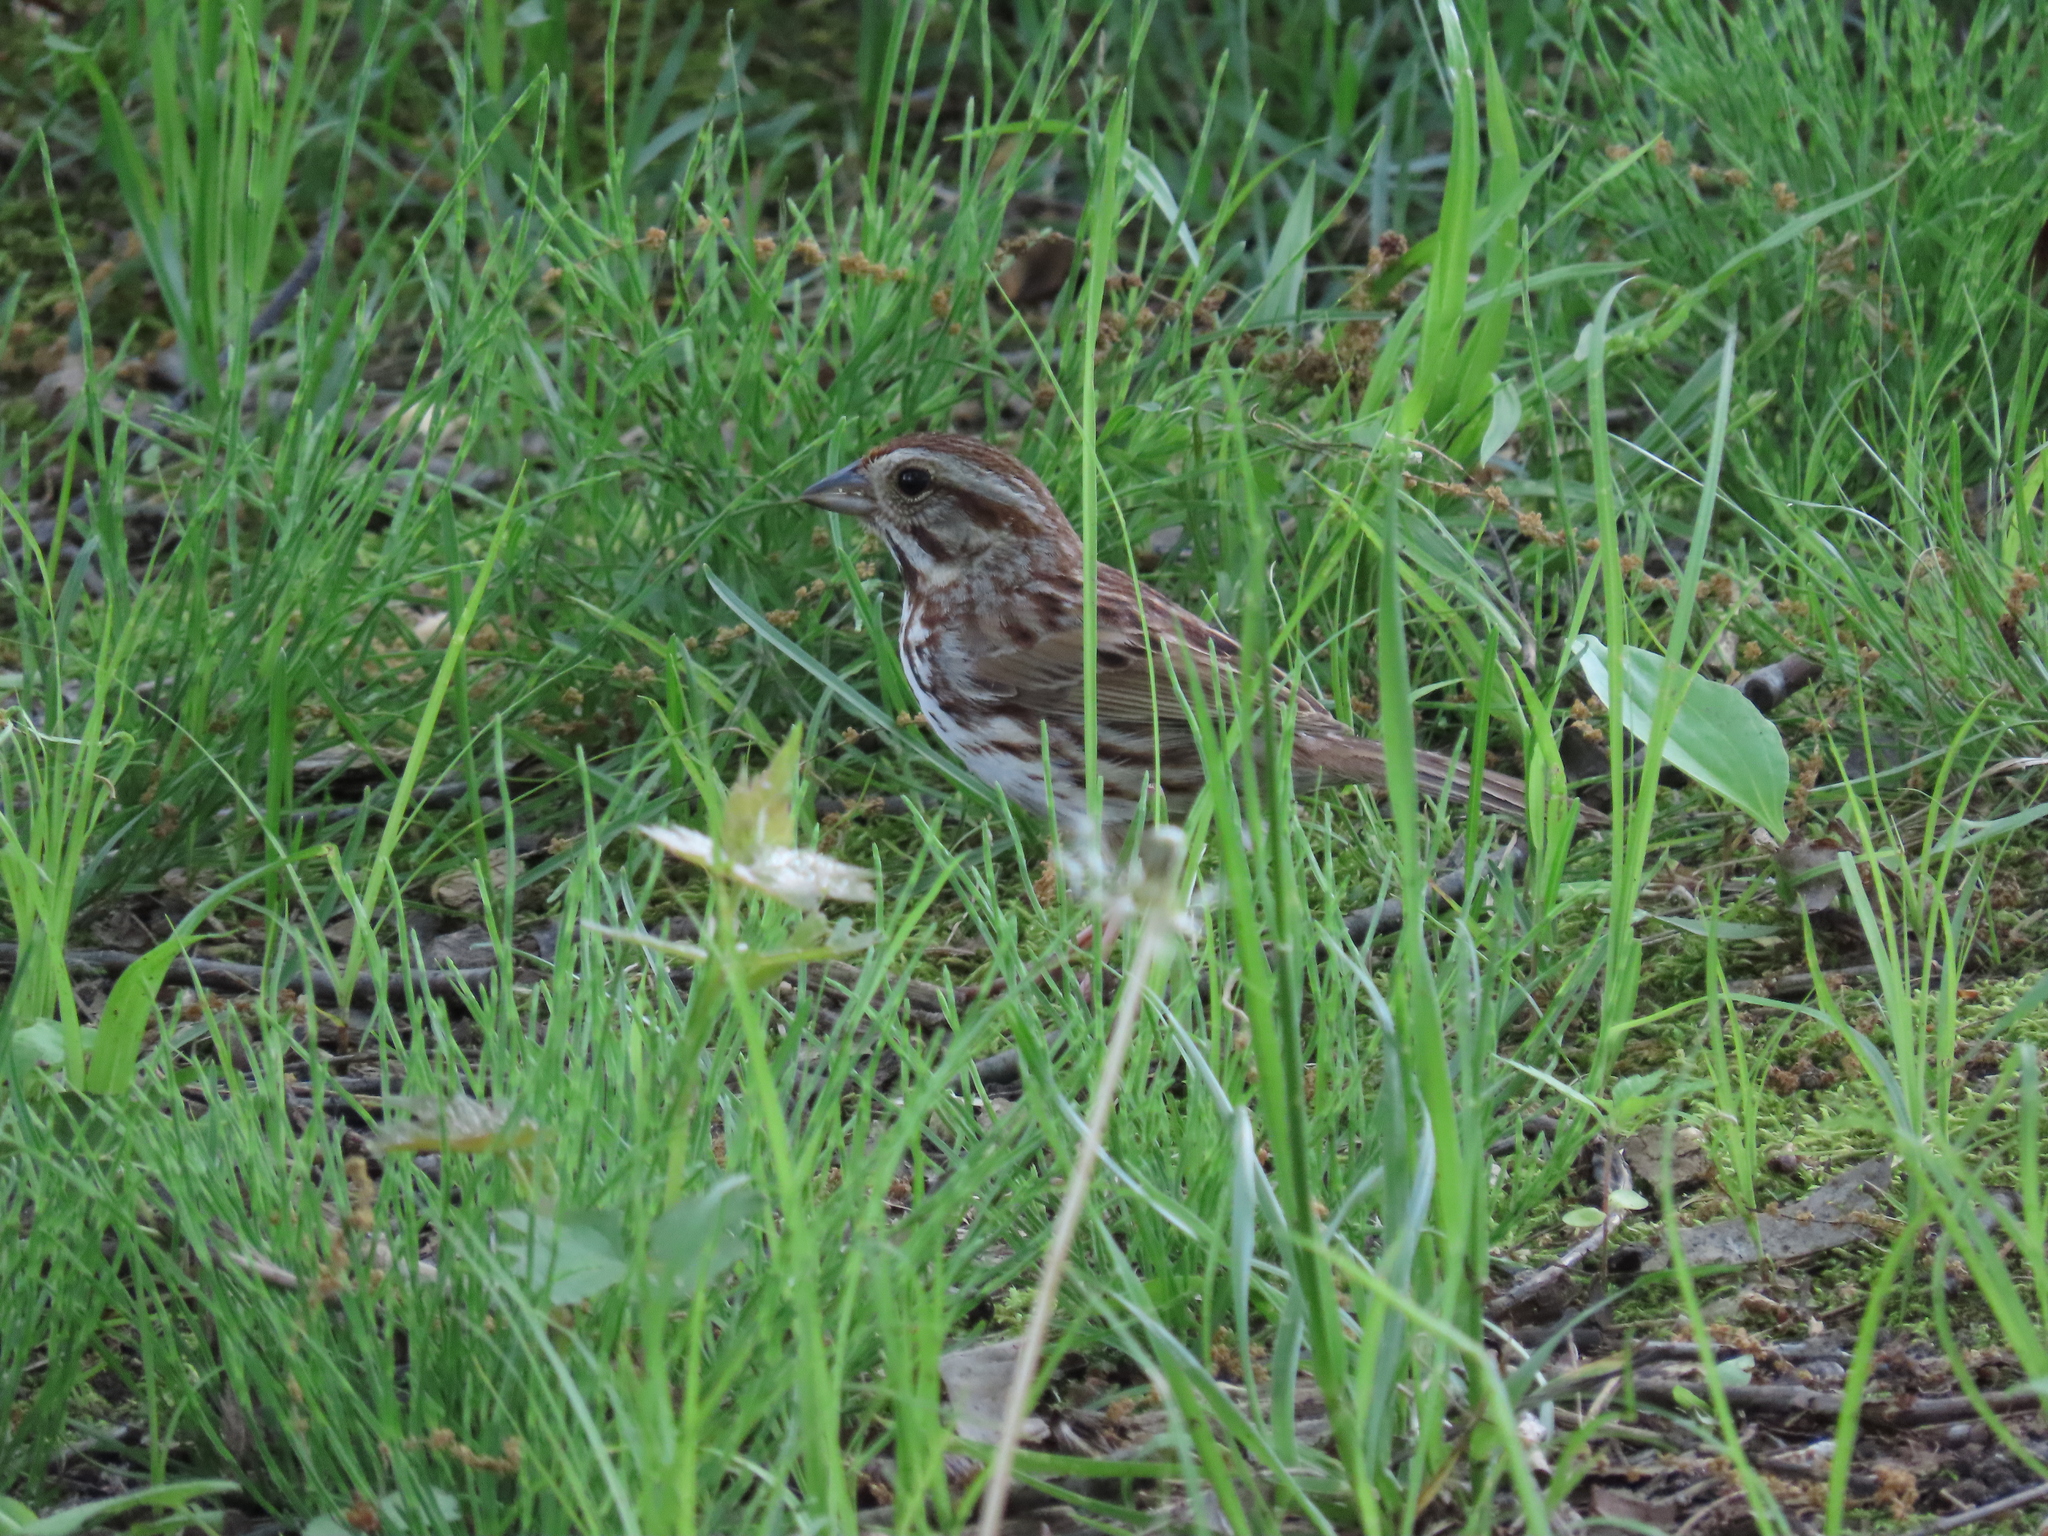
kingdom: Animalia
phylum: Chordata
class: Aves
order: Passeriformes
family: Passerellidae
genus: Melospiza
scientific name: Melospiza melodia
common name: Song sparrow
